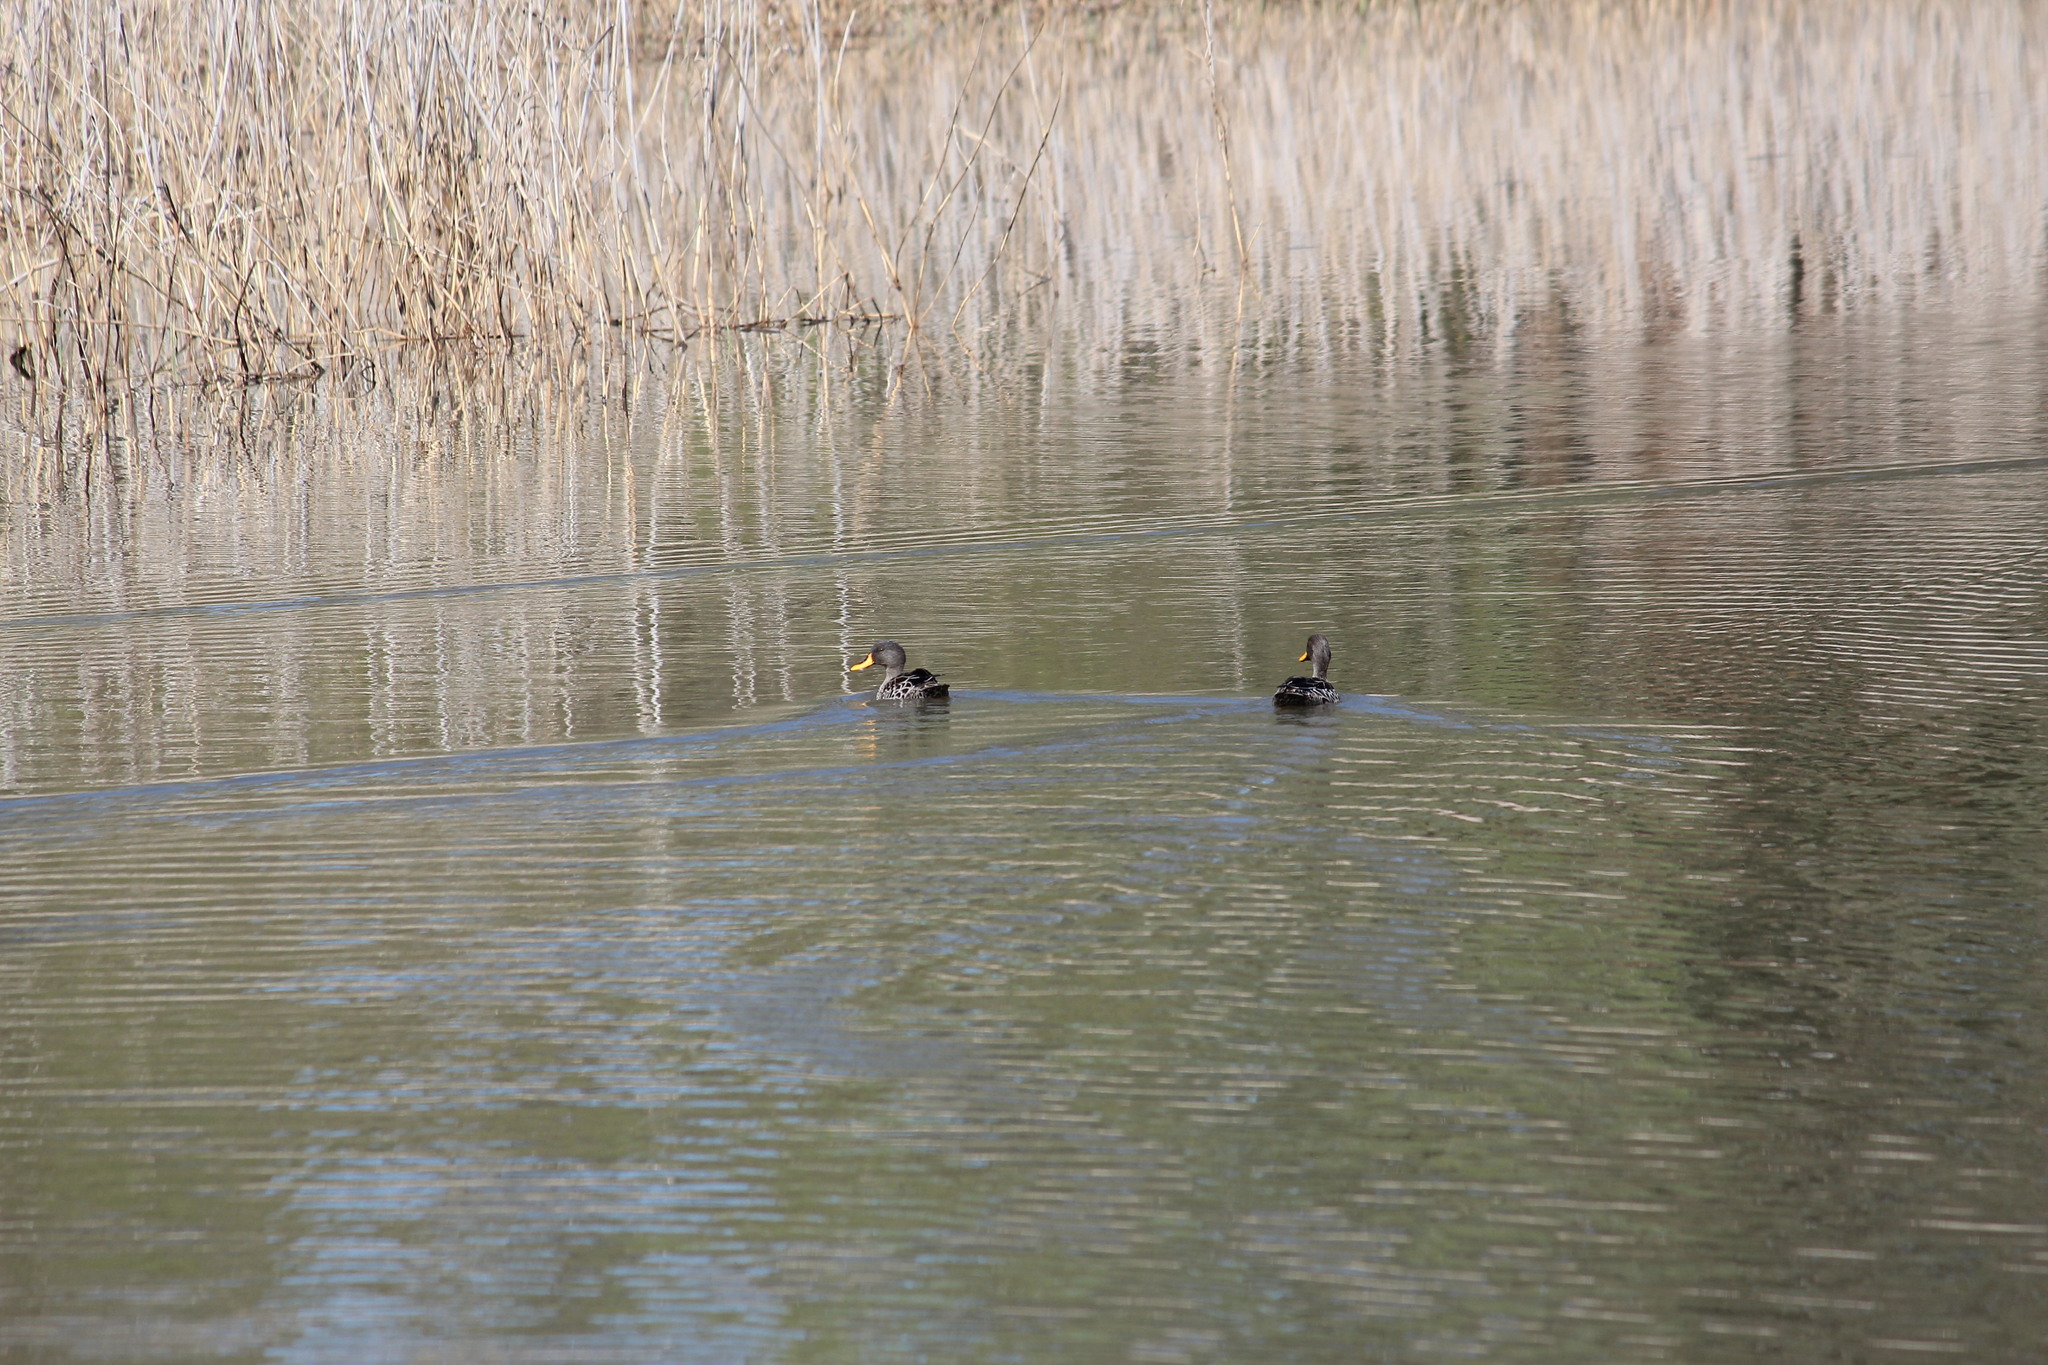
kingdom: Animalia
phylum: Chordata
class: Aves
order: Anseriformes
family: Anatidae
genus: Anas
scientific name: Anas undulata
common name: Yellow-billed duck
